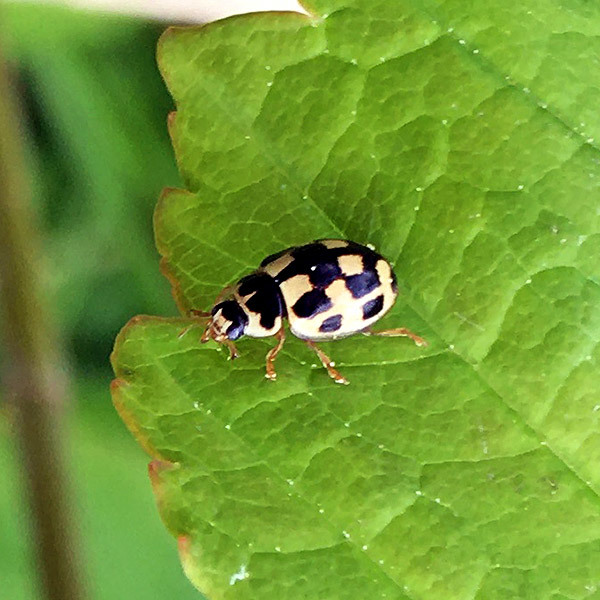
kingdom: Animalia
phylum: Arthropoda
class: Insecta
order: Coleoptera
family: Coccinellidae
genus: Propylaea
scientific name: Propylaea quatuordecimpunctata
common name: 14-spotted ladybird beetle
